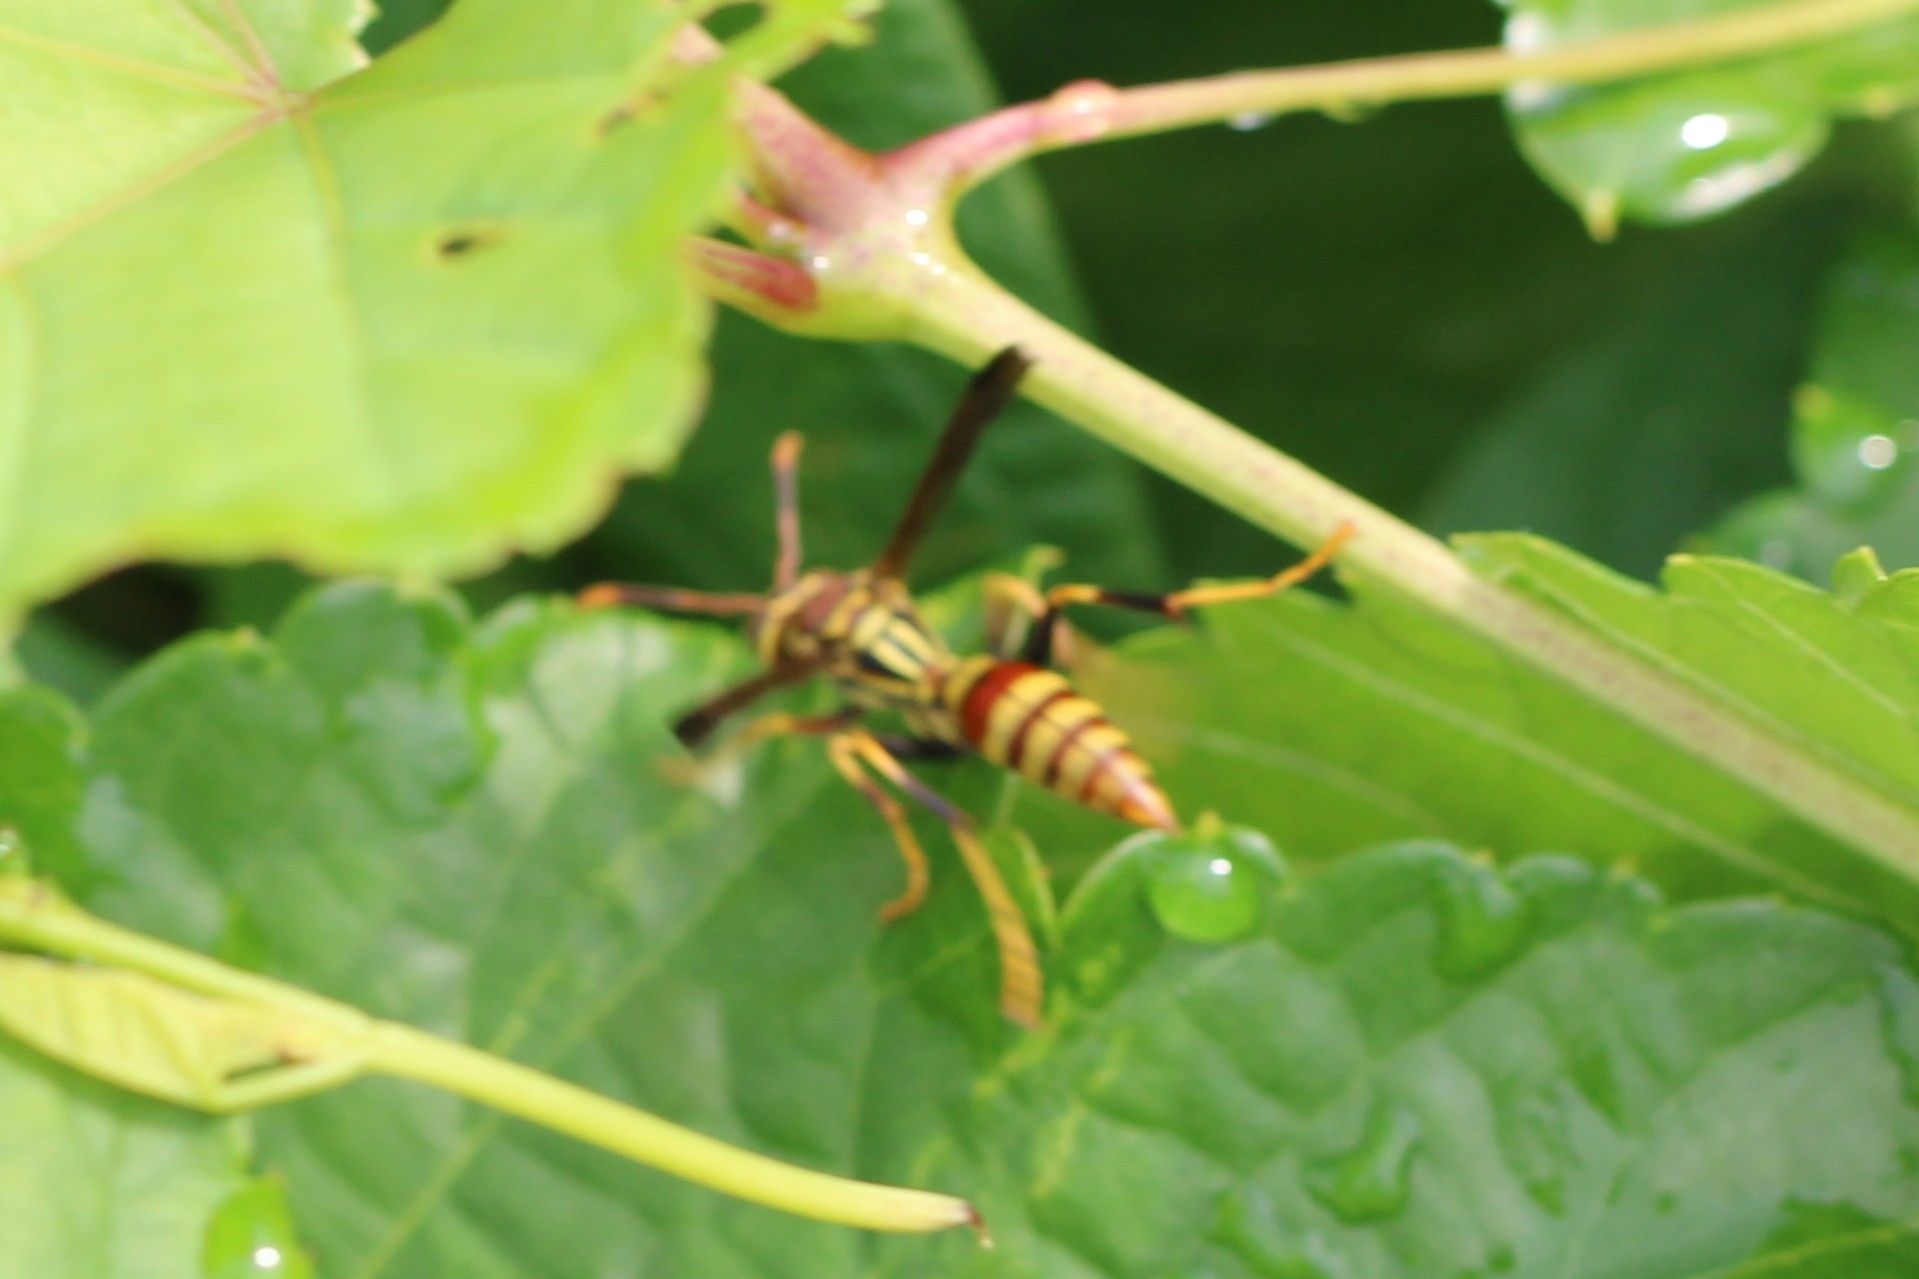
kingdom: Animalia
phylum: Arthropoda
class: Insecta
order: Hymenoptera
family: Eumenidae
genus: Polistes
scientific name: Polistes exclamans
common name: Paper wasp
